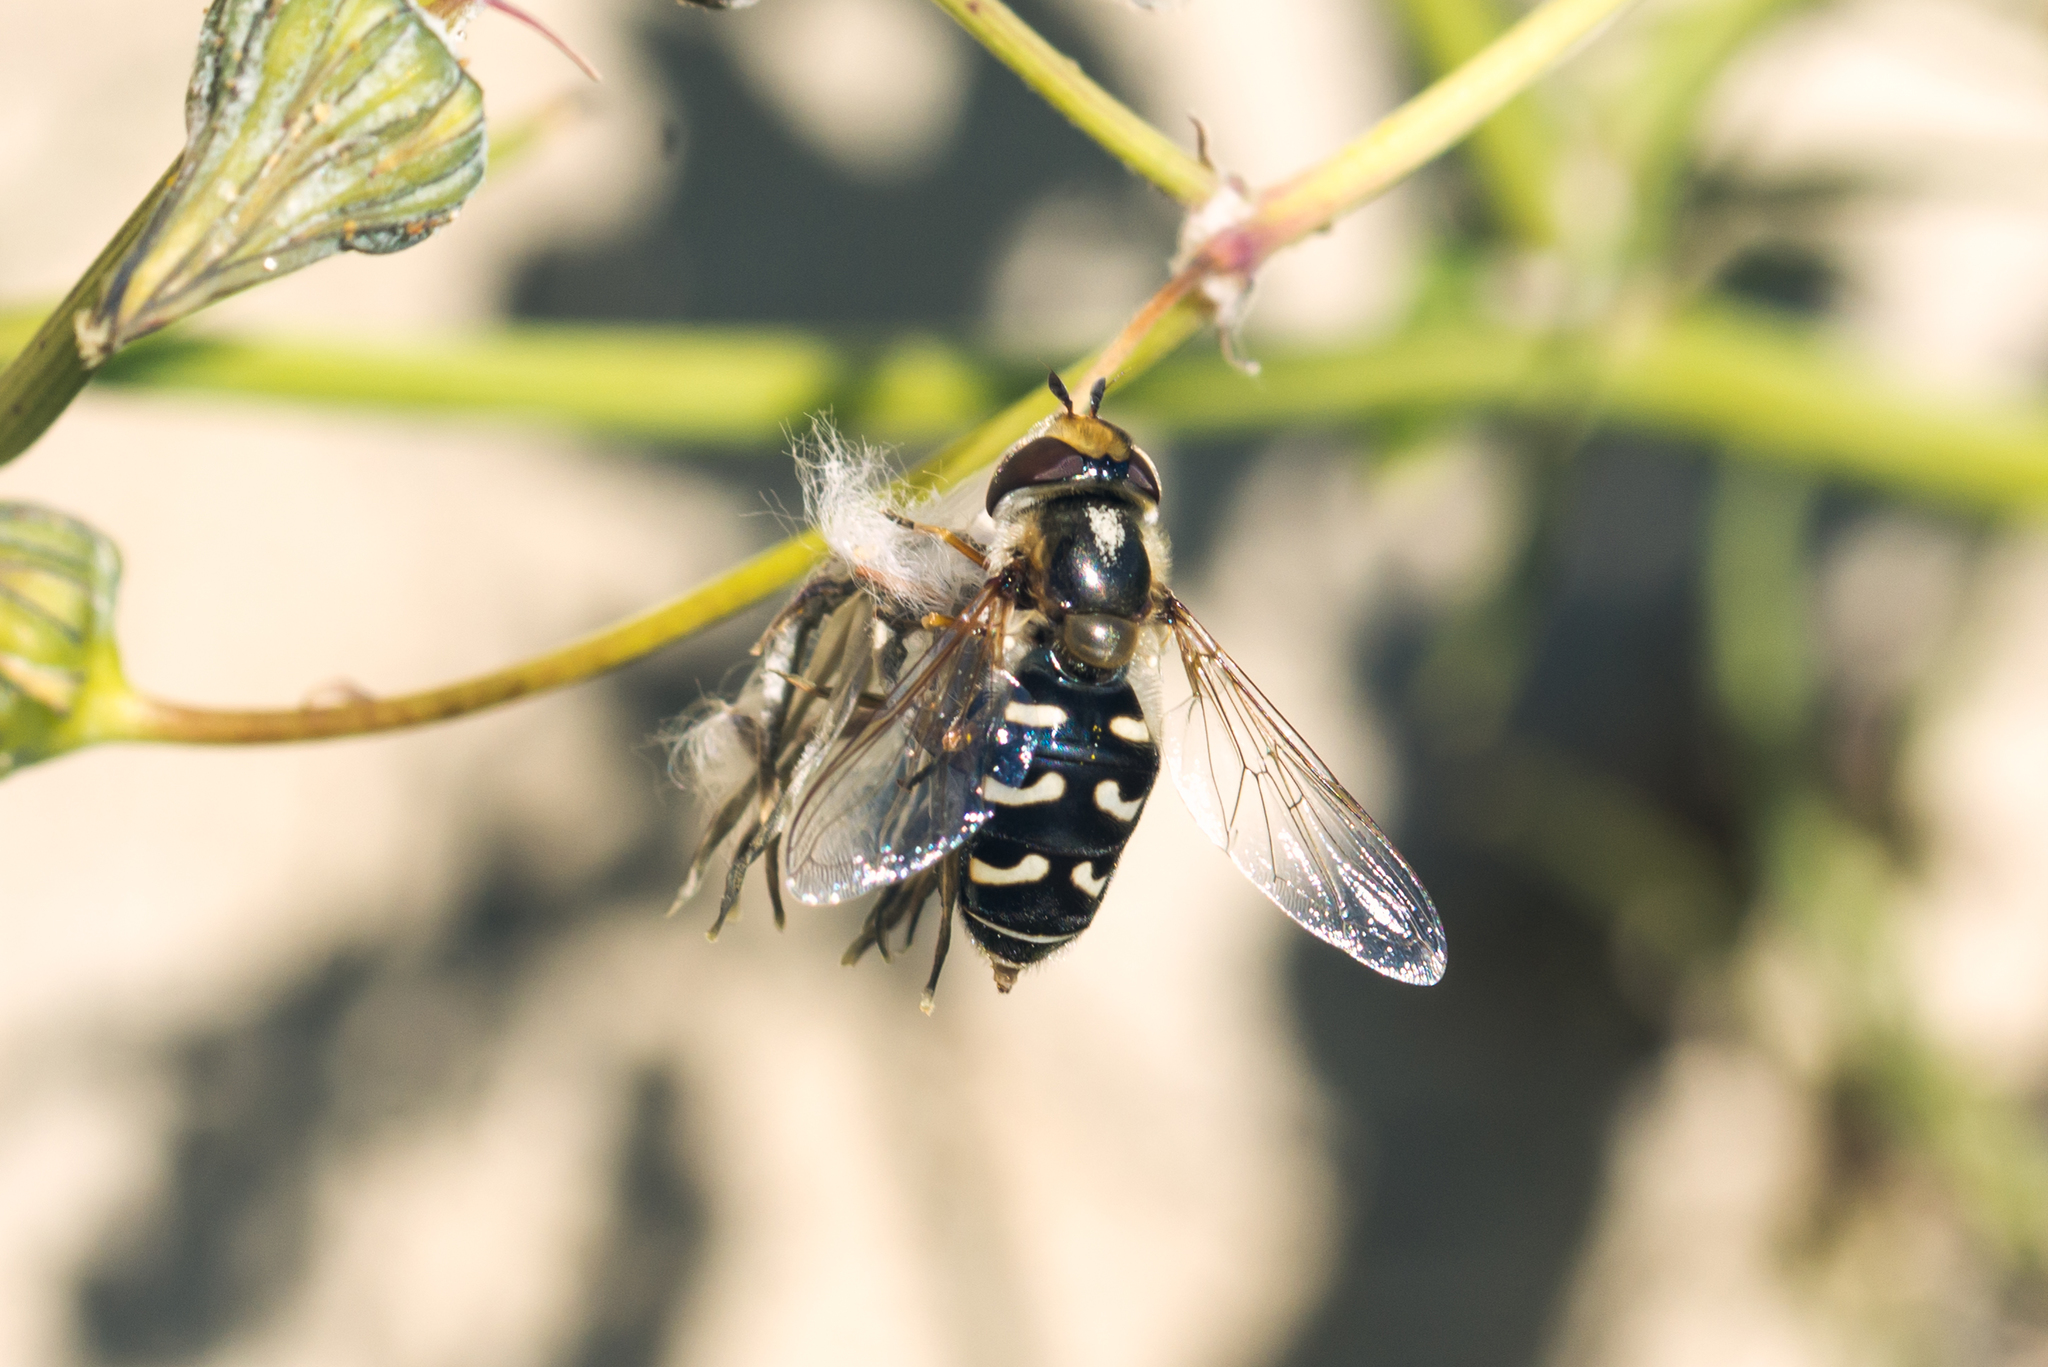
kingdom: Animalia
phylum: Arthropoda
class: Insecta
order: Diptera
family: Syrphidae
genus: Scaeva
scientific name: Scaeva pyrastri
